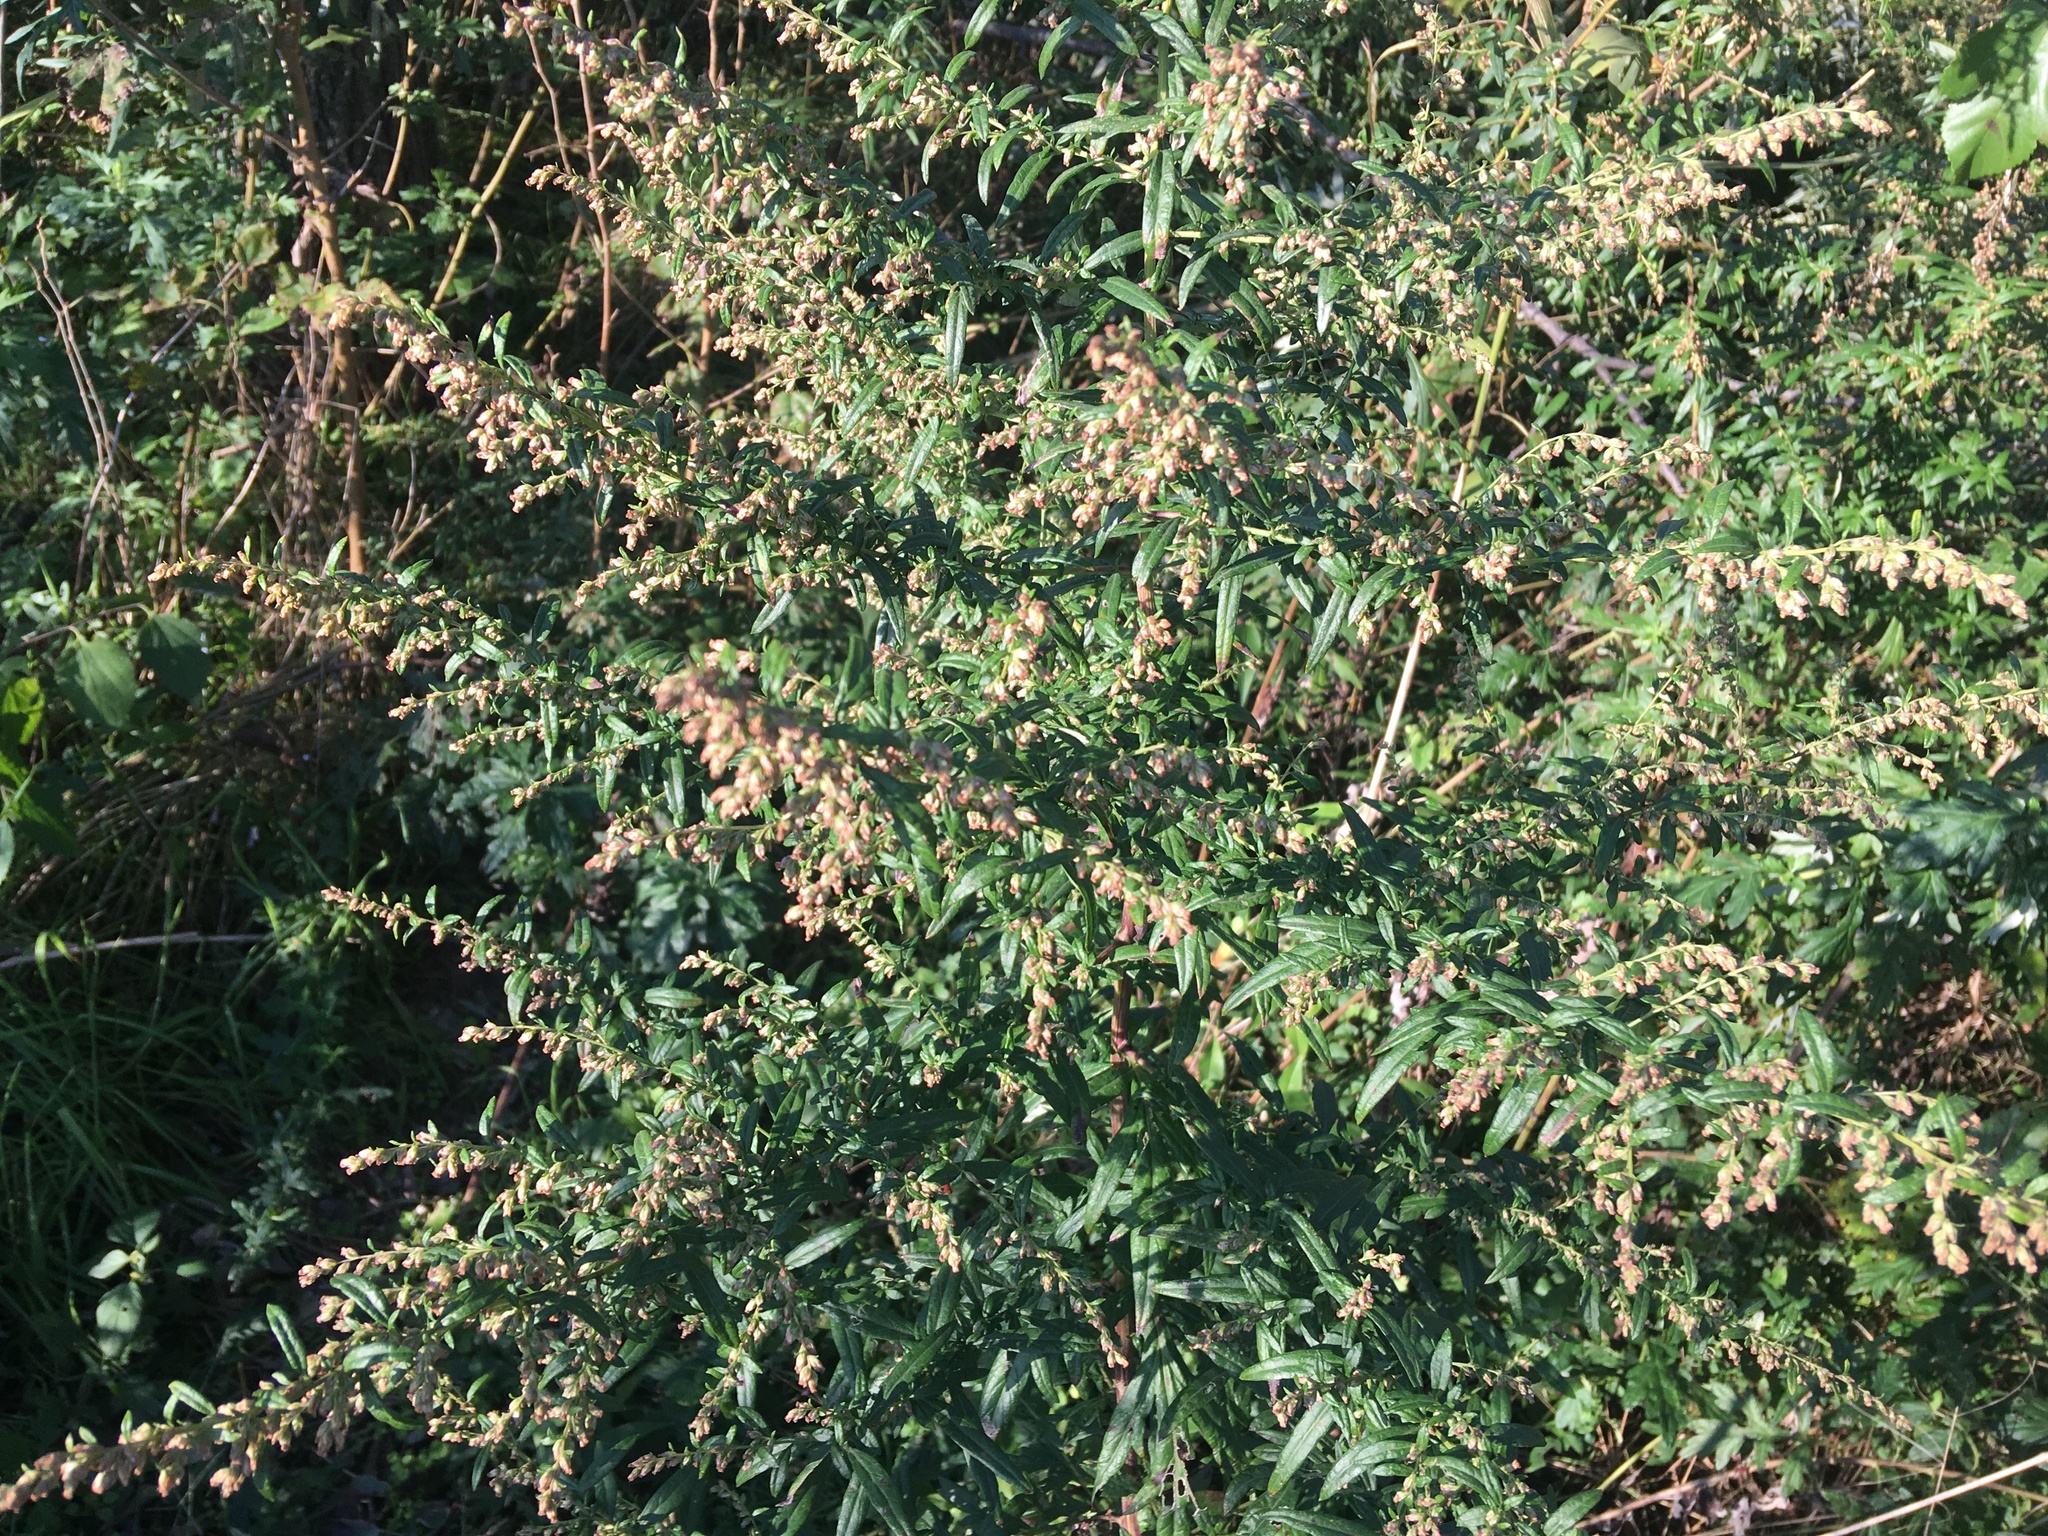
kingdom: Plantae
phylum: Tracheophyta
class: Magnoliopsida
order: Asterales
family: Asteraceae
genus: Artemisia
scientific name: Artemisia vulgaris
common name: Mugwort
